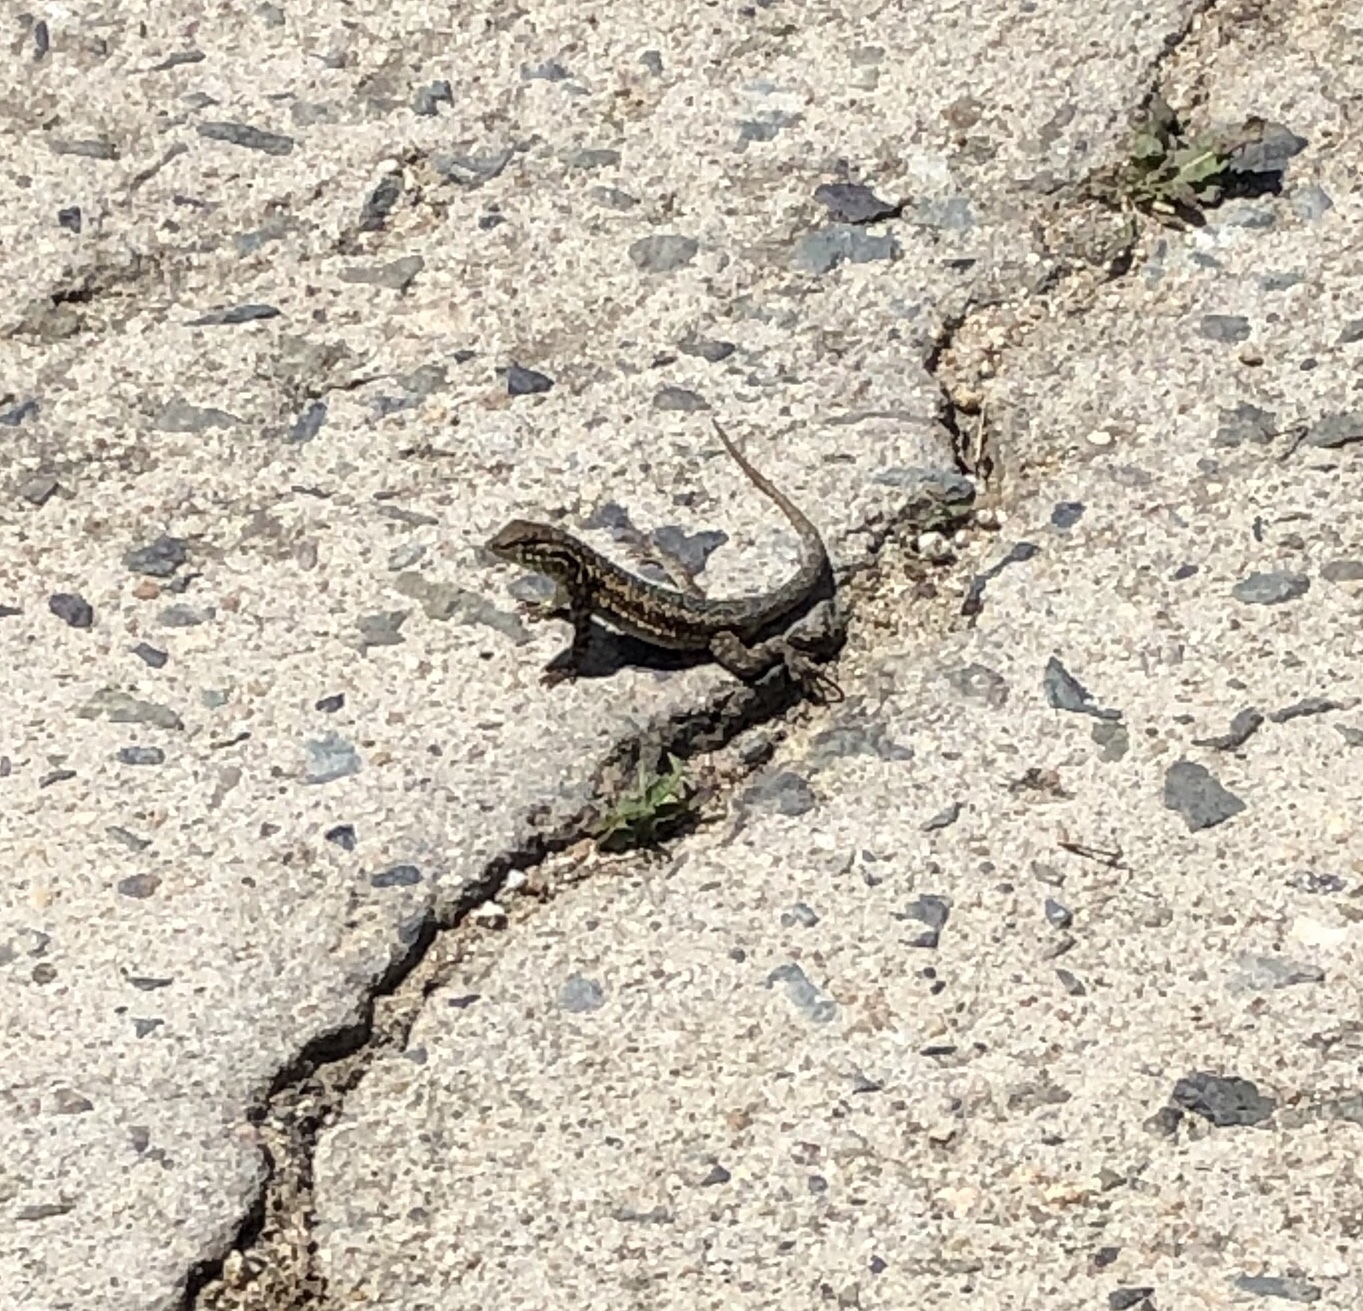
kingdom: Animalia
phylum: Chordata
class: Squamata
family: Phrynosomatidae
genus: Uta
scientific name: Uta stansburiana
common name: Side-blotched lizard
